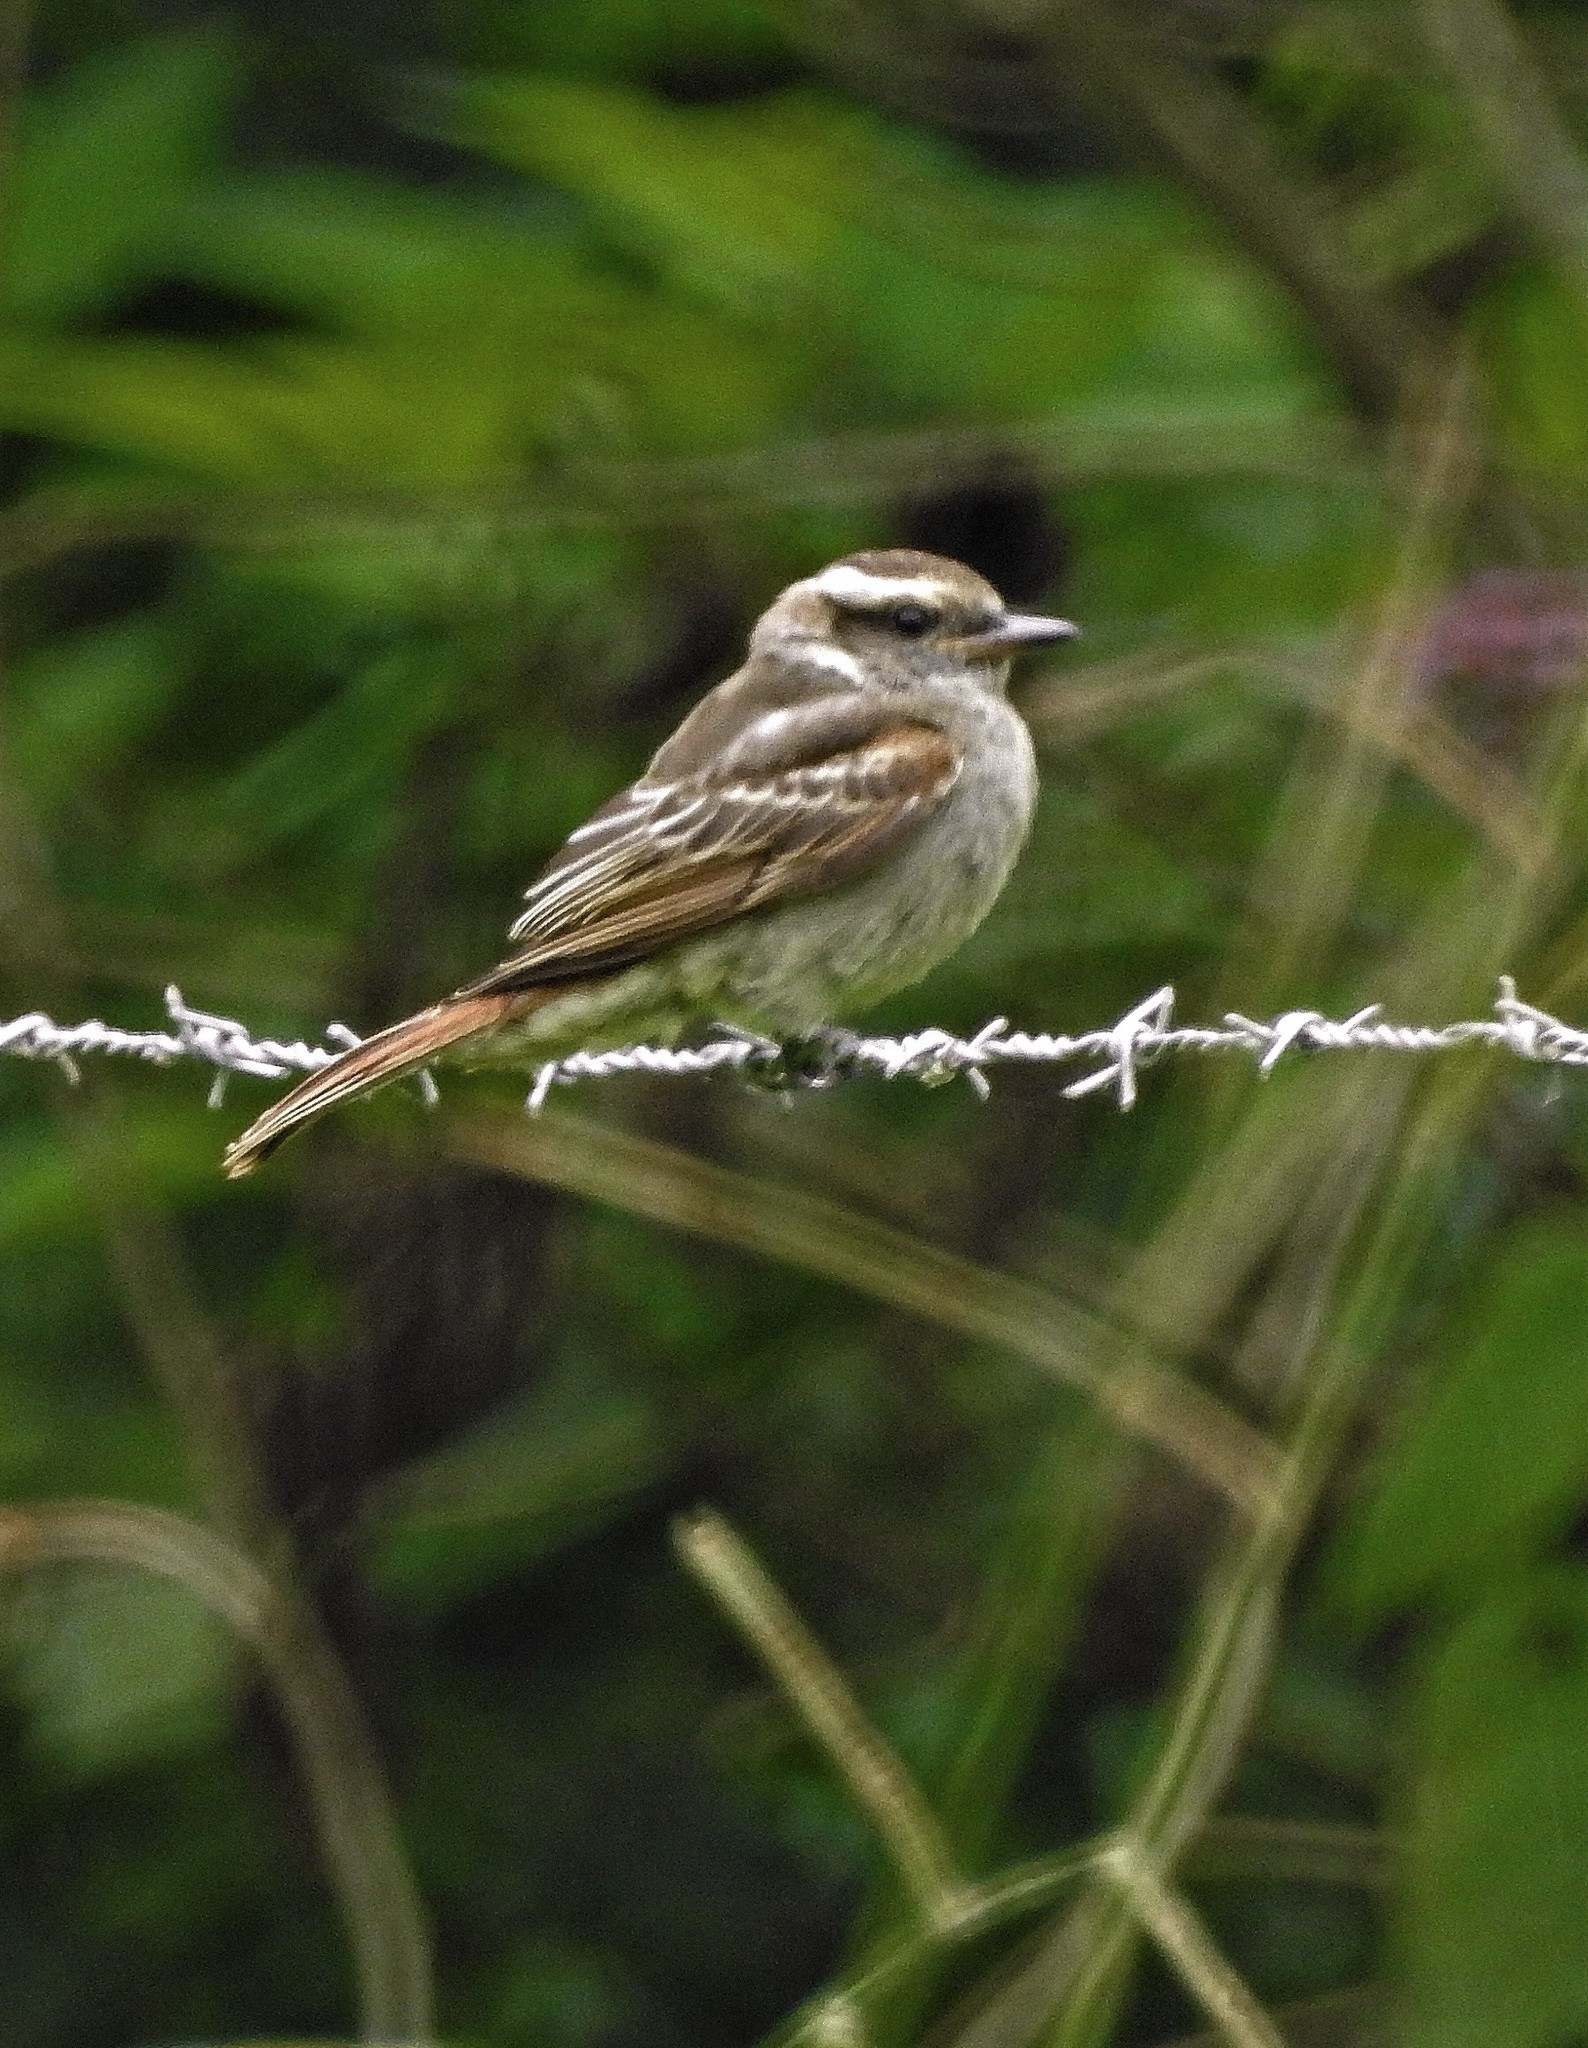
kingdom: Animalia
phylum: Chordata
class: Aves
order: Passeriformes
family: Tyrannidae
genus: Empidonomus
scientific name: Empidonomus aurantioatrocristatus
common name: Crowned slaty flycatcher
